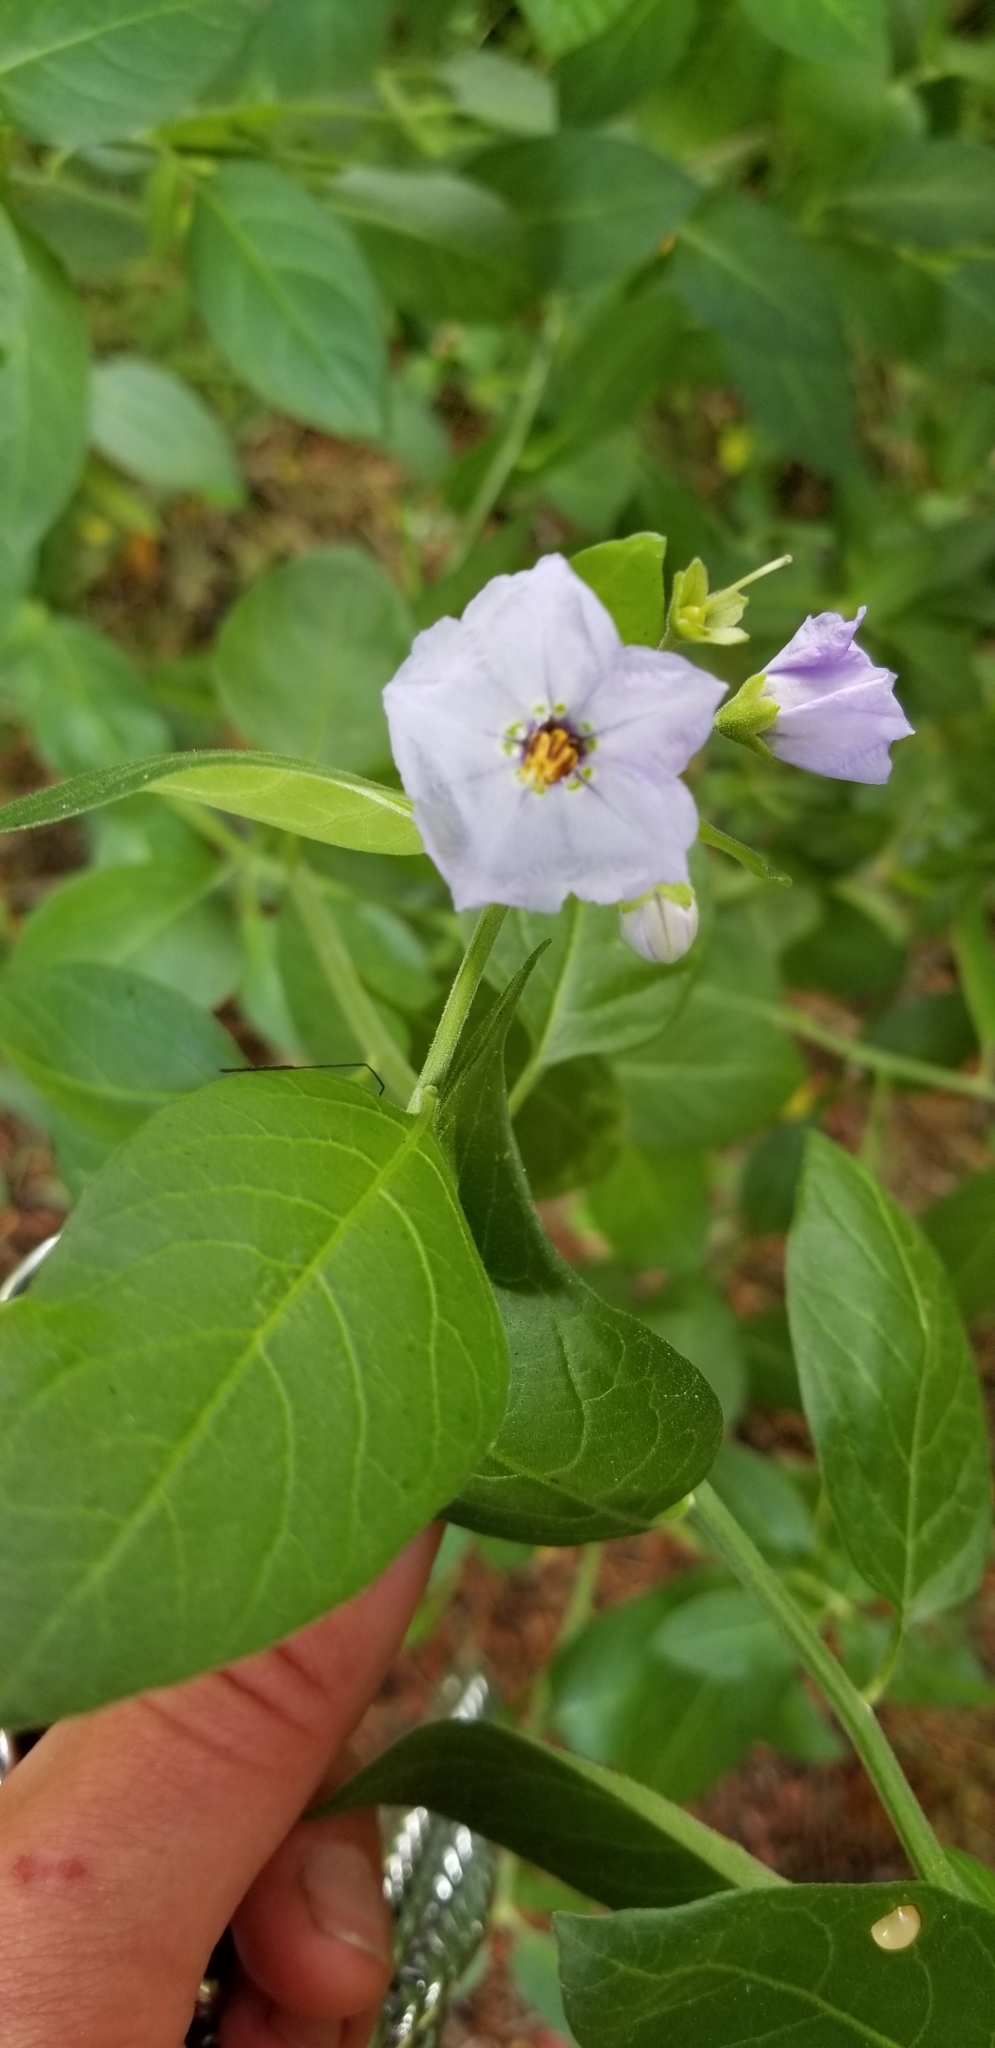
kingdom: Plantae
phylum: Tracheophyta
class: Magnoliopsida
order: Solanales
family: Solanaceae
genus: Solanum
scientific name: Solanum umbelliferum
